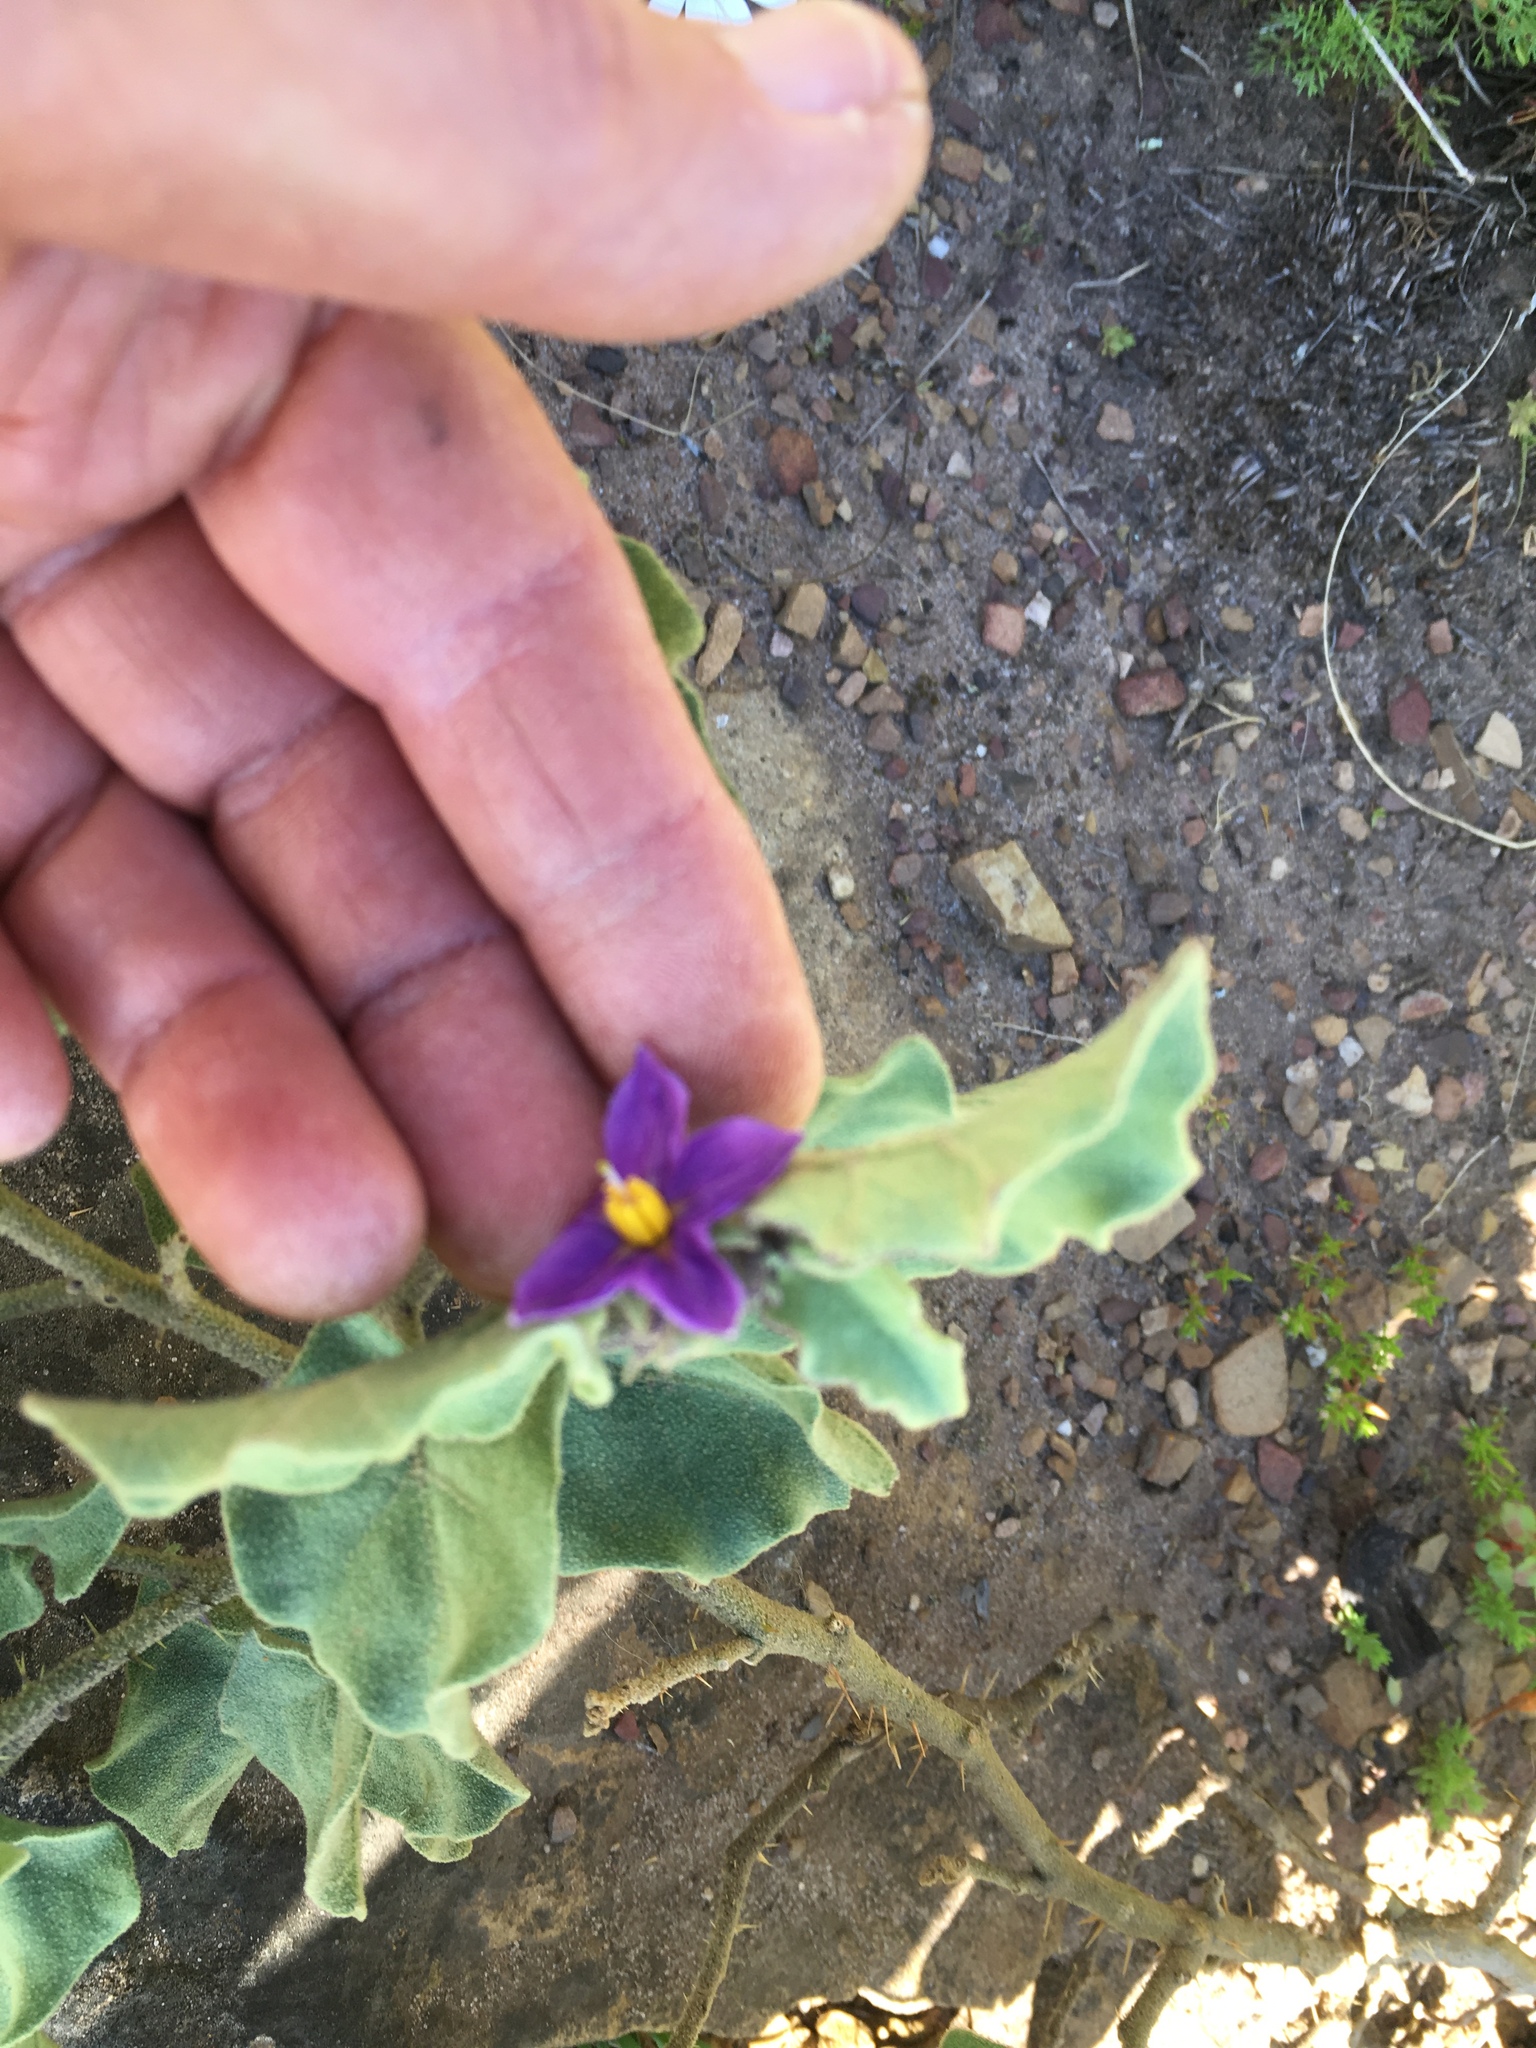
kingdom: Plantae
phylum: Tracheophyta
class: Magnoliopsida
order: Solanales
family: Solanaceae
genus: Solanum
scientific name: Solanum tomentosum
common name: Wild aubergine
